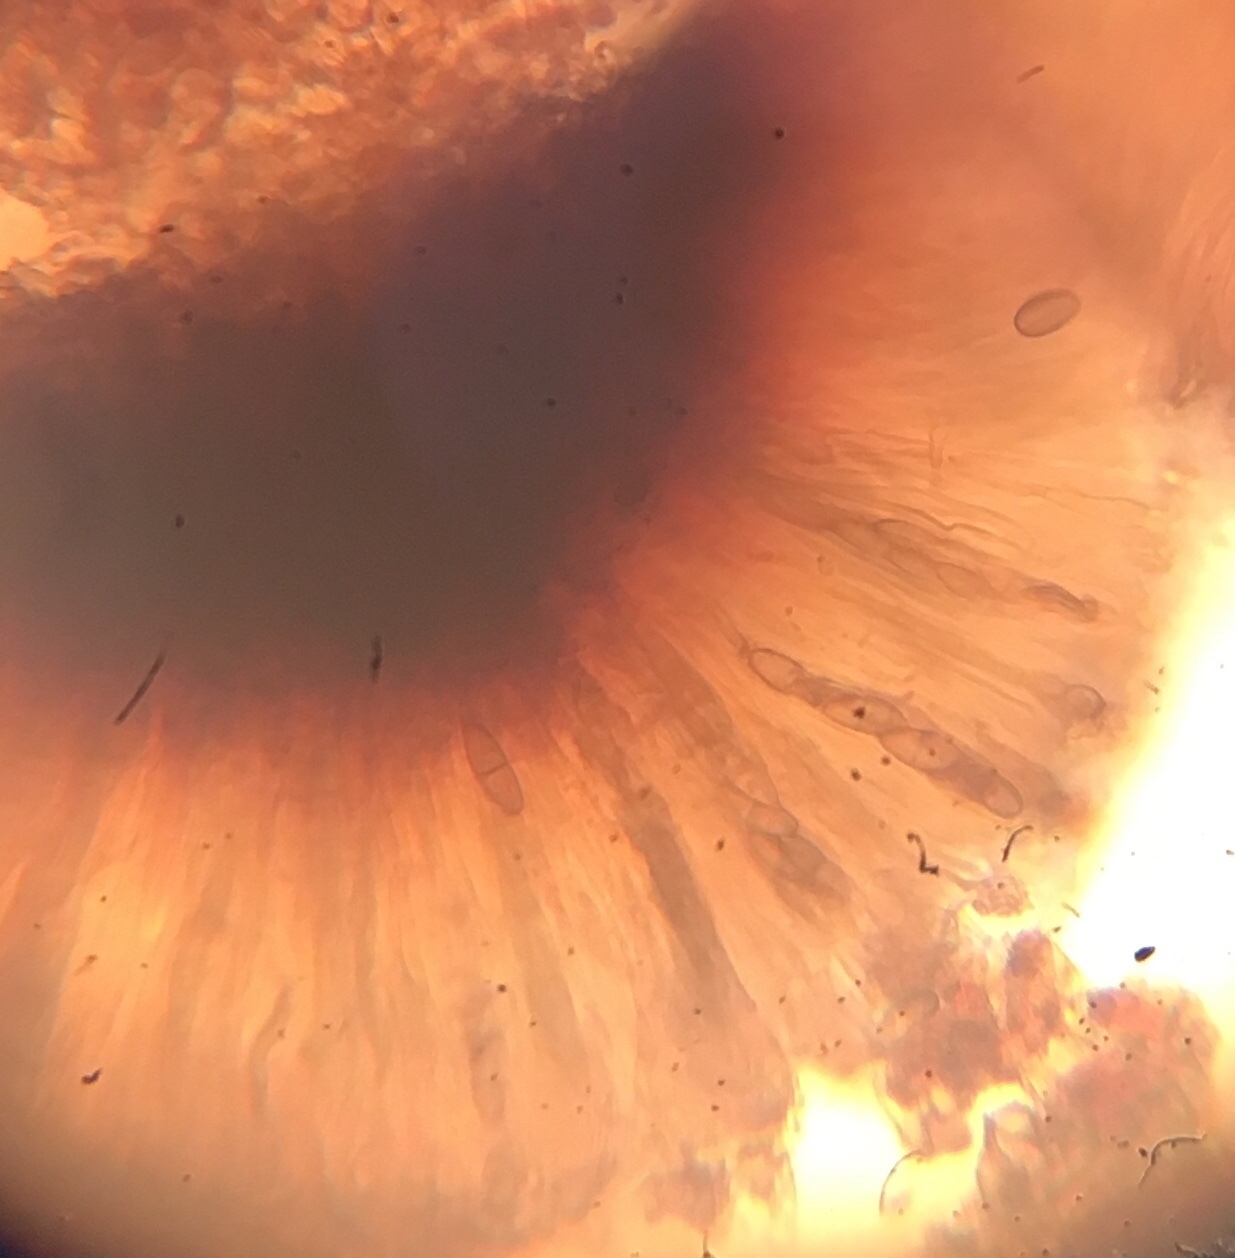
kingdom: Fungi
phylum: Ascomycota
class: Eurotiomycetes
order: Sclerococcales
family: Sclerococcaceae
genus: Sclerococcum
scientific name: Sclerococcum stygium
